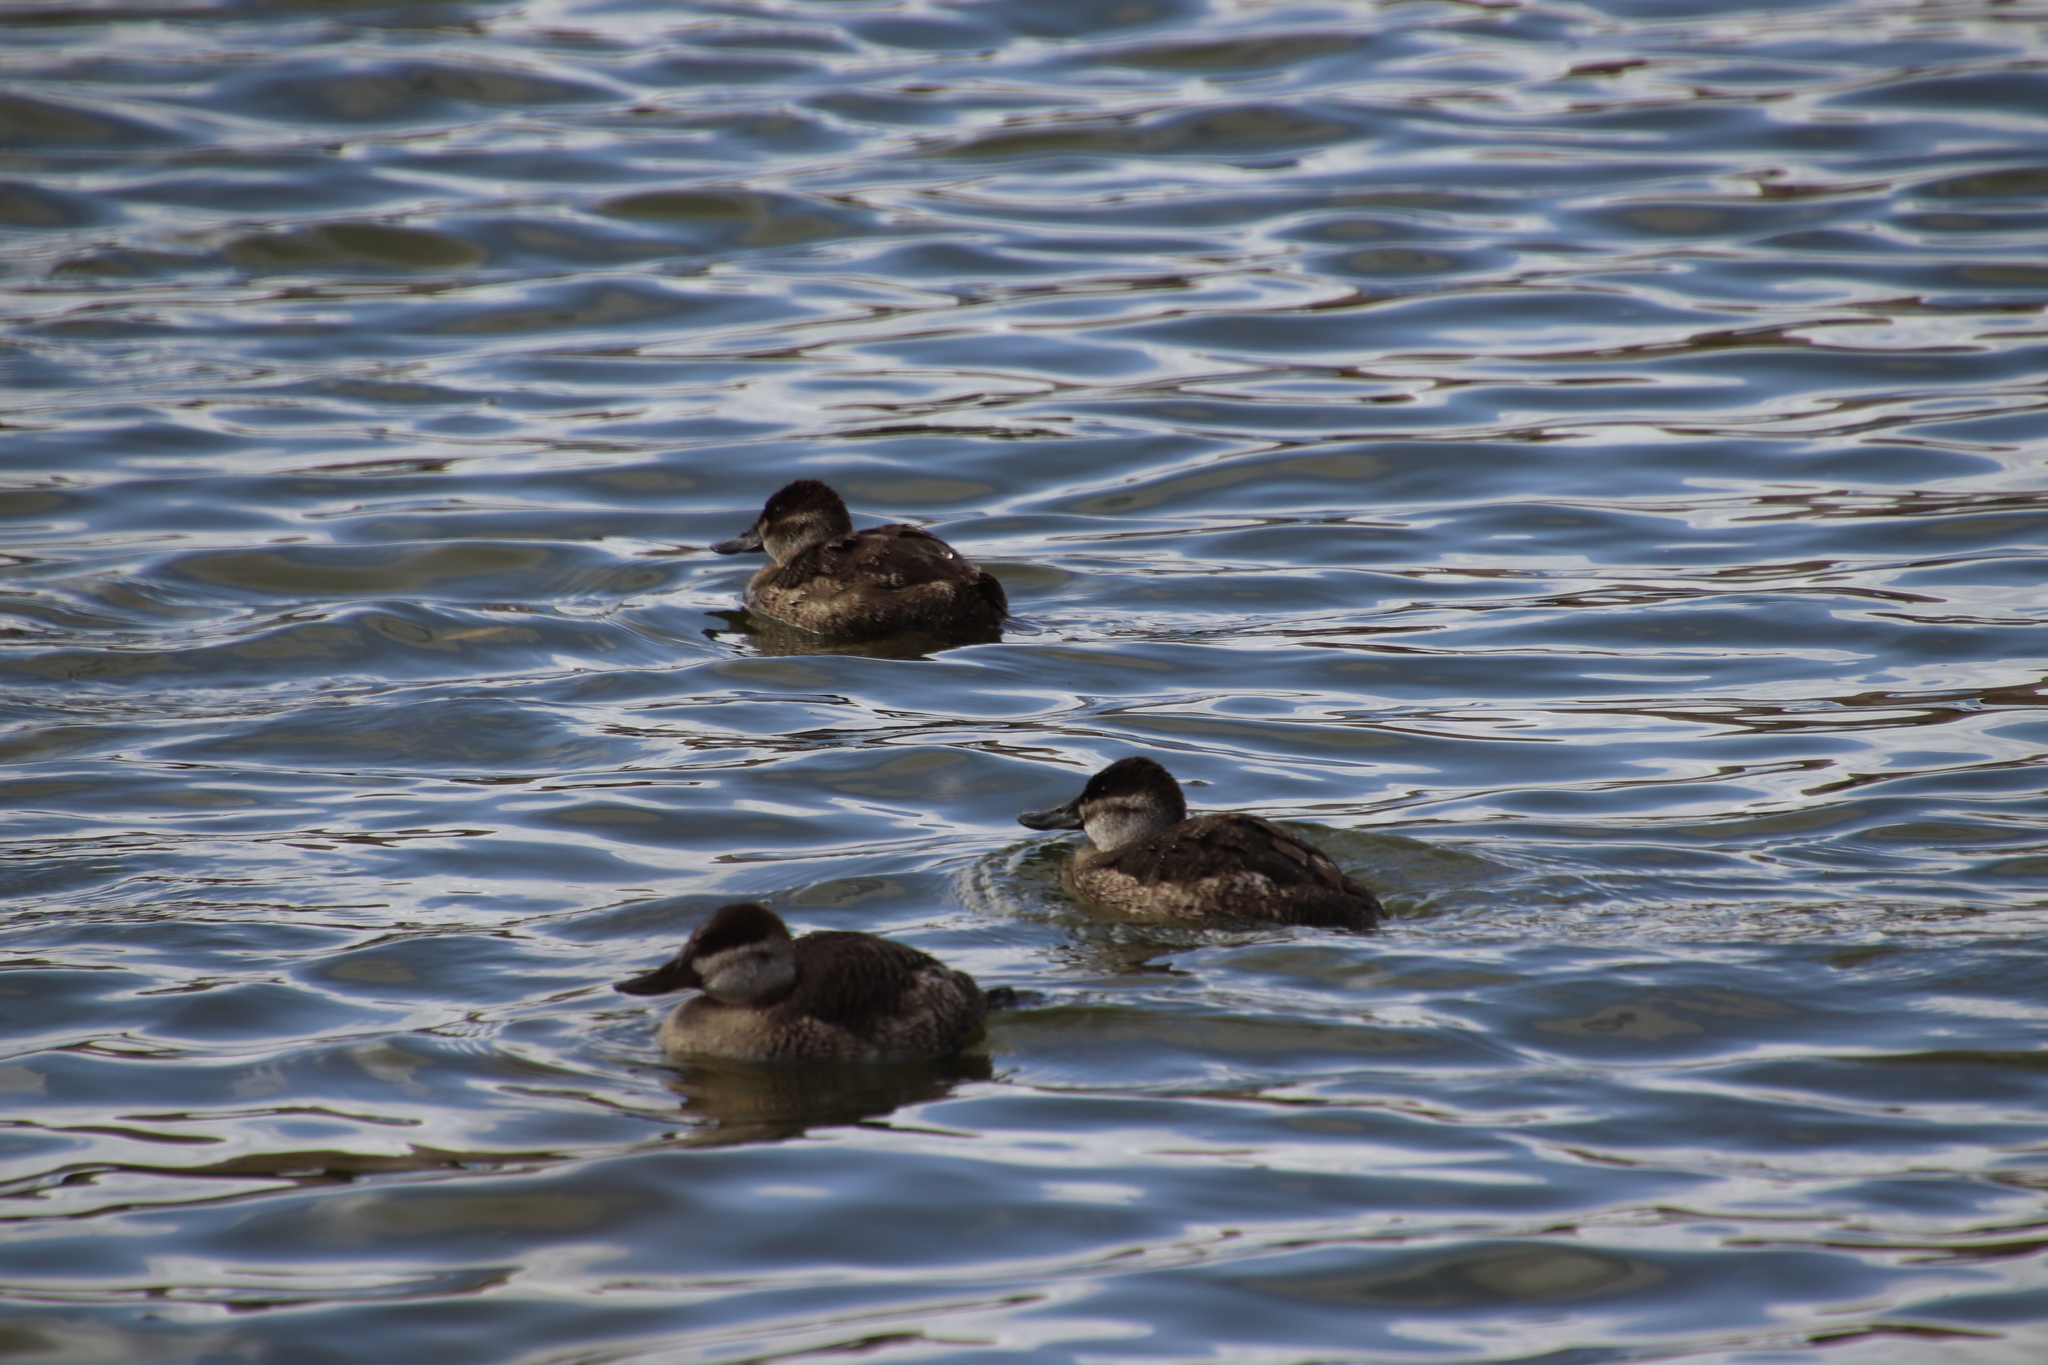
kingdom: Animalia
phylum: Chordata
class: Aves
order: Anseriformes
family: Anatidae
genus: Oxyura
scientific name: Oxyura jamaicensis
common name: Ruddy duck
